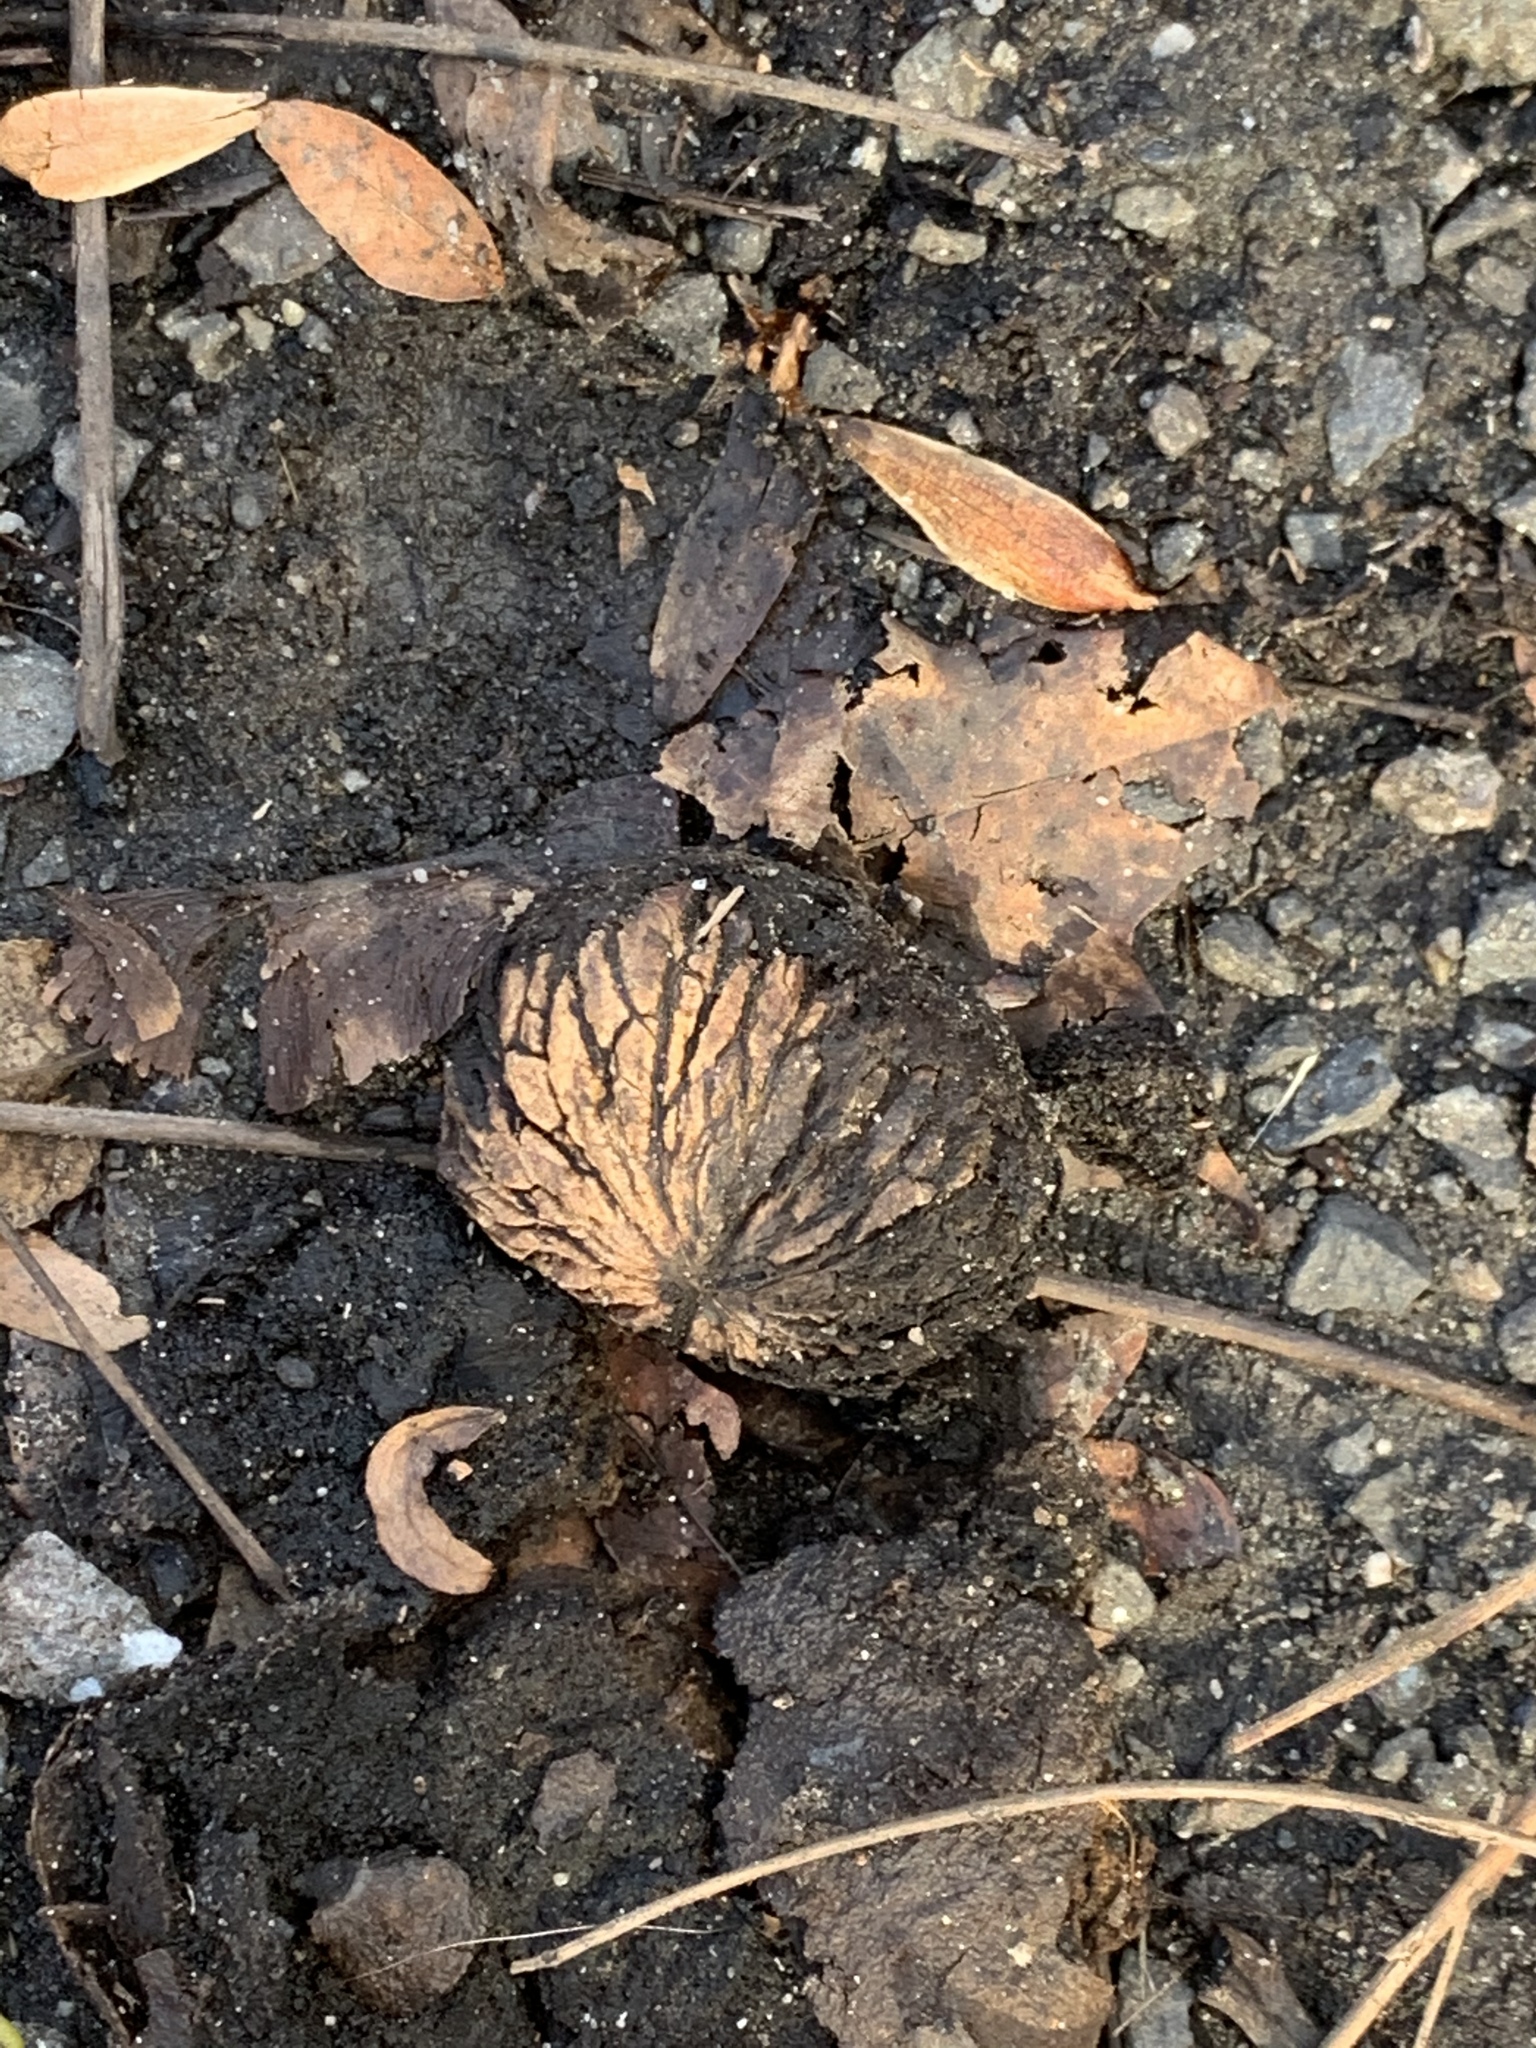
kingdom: Plantae
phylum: Tracheophyta
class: Magnoliopsida
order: Fagales
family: Juglandaceae
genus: Juglans
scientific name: Juglans nigra
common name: Black walnut
